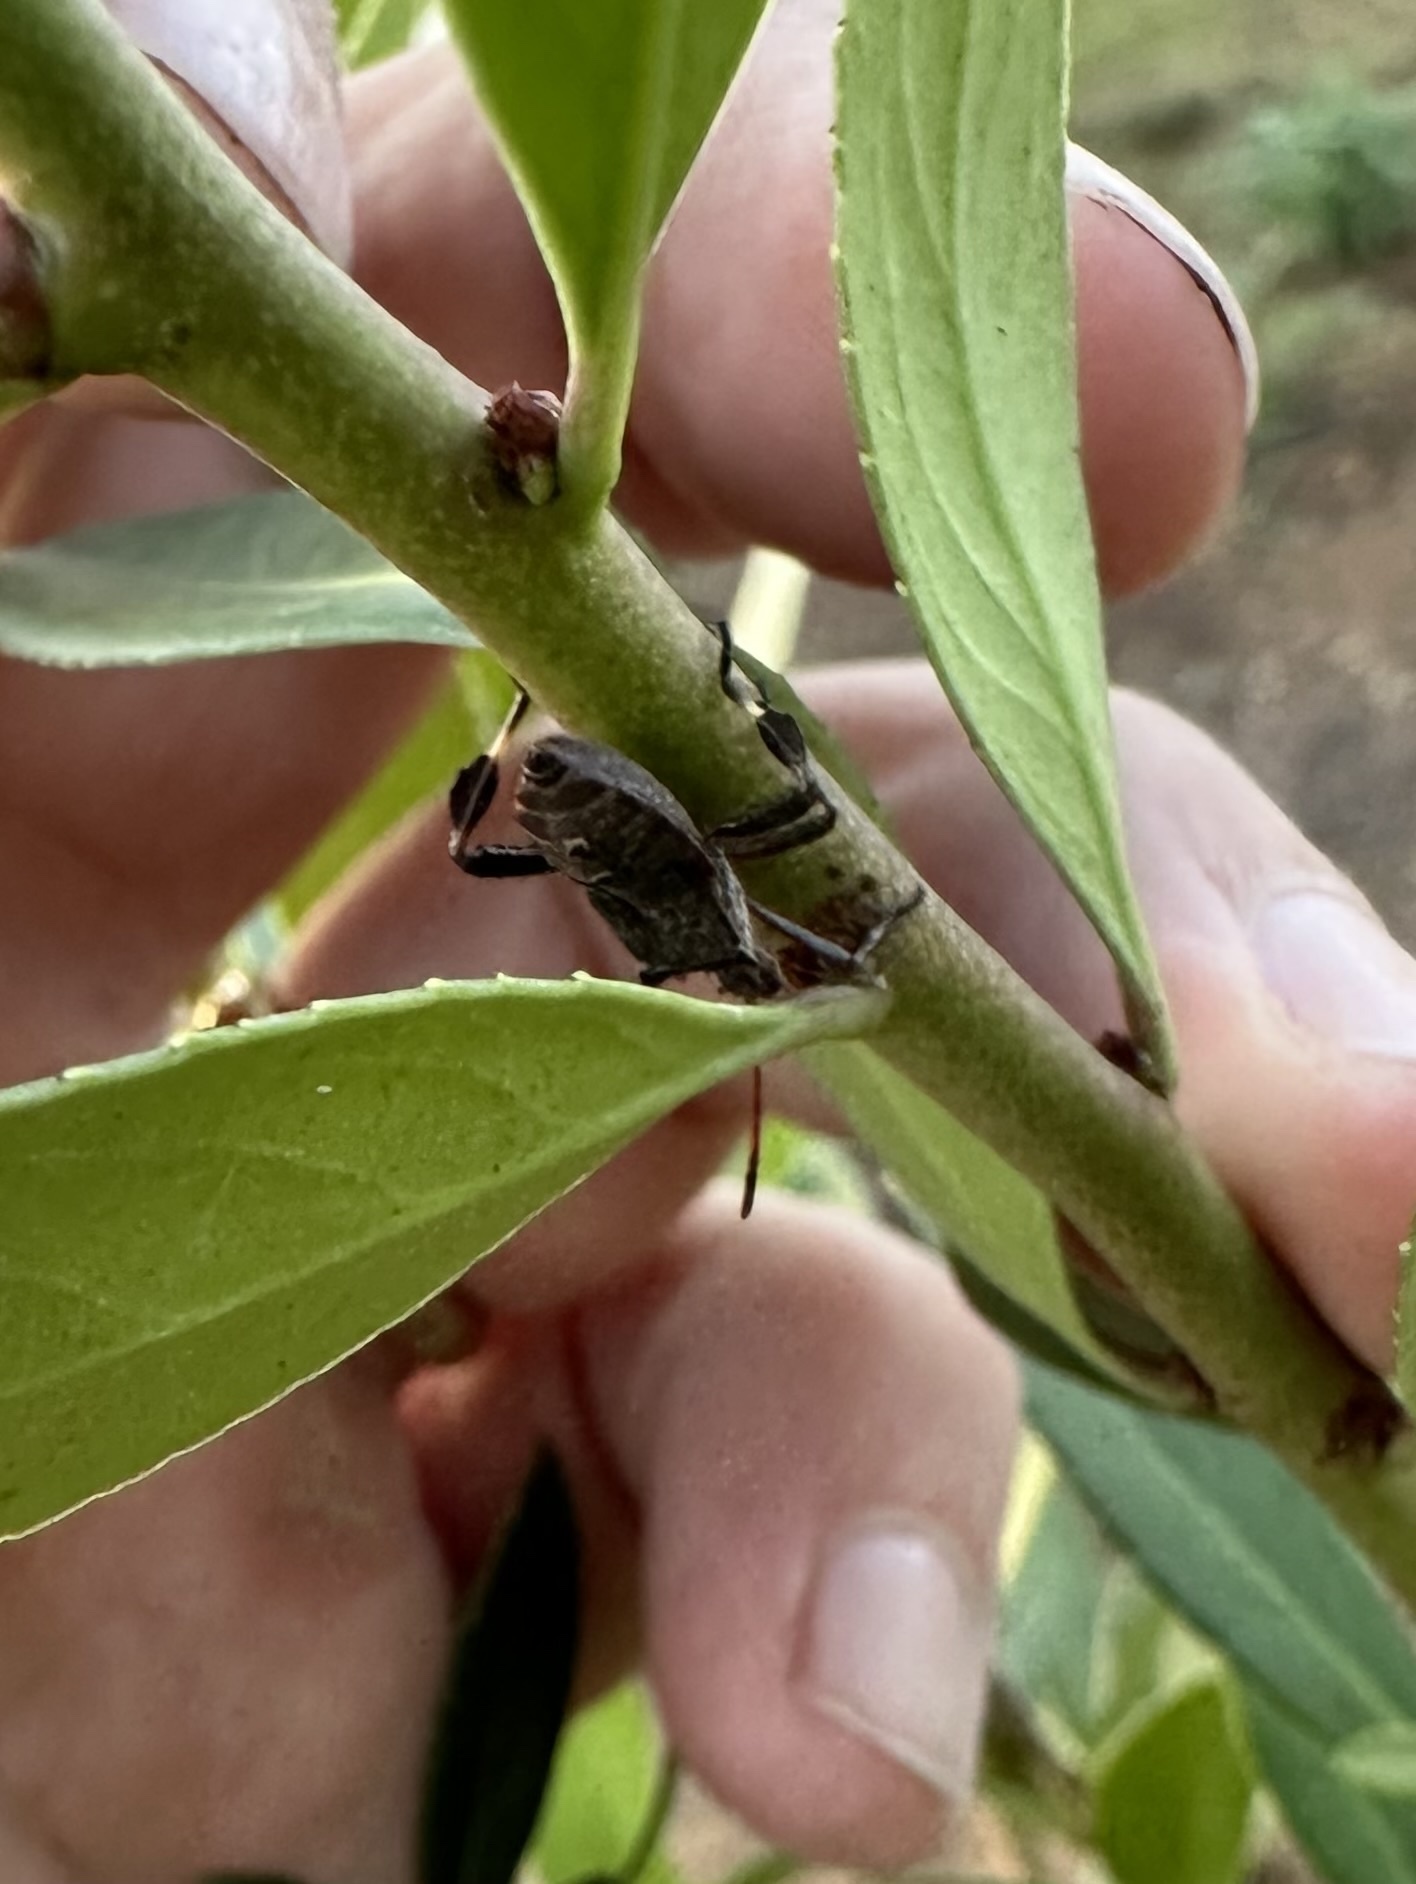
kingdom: Animalia
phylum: Arthropoda
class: Insecta
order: Hemiptera
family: Coreidae
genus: Leptoglossus
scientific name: Leptoglossus chilensis
